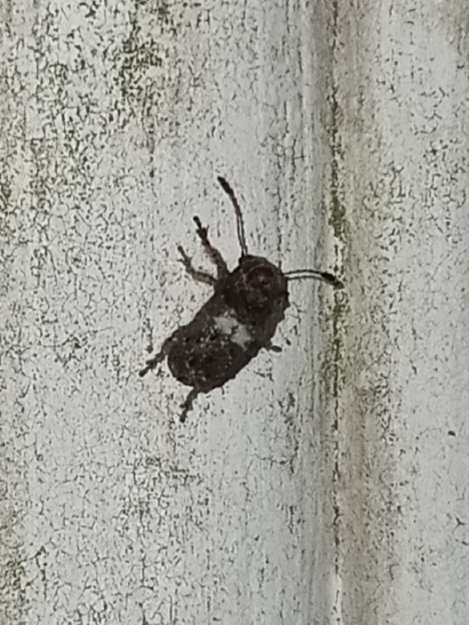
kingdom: Animalia
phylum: Arthropoda
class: Insecta
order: Coleoptera
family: Anthribidae
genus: Toxonotus
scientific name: Toxonotus cornutus
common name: Fungus weevil
